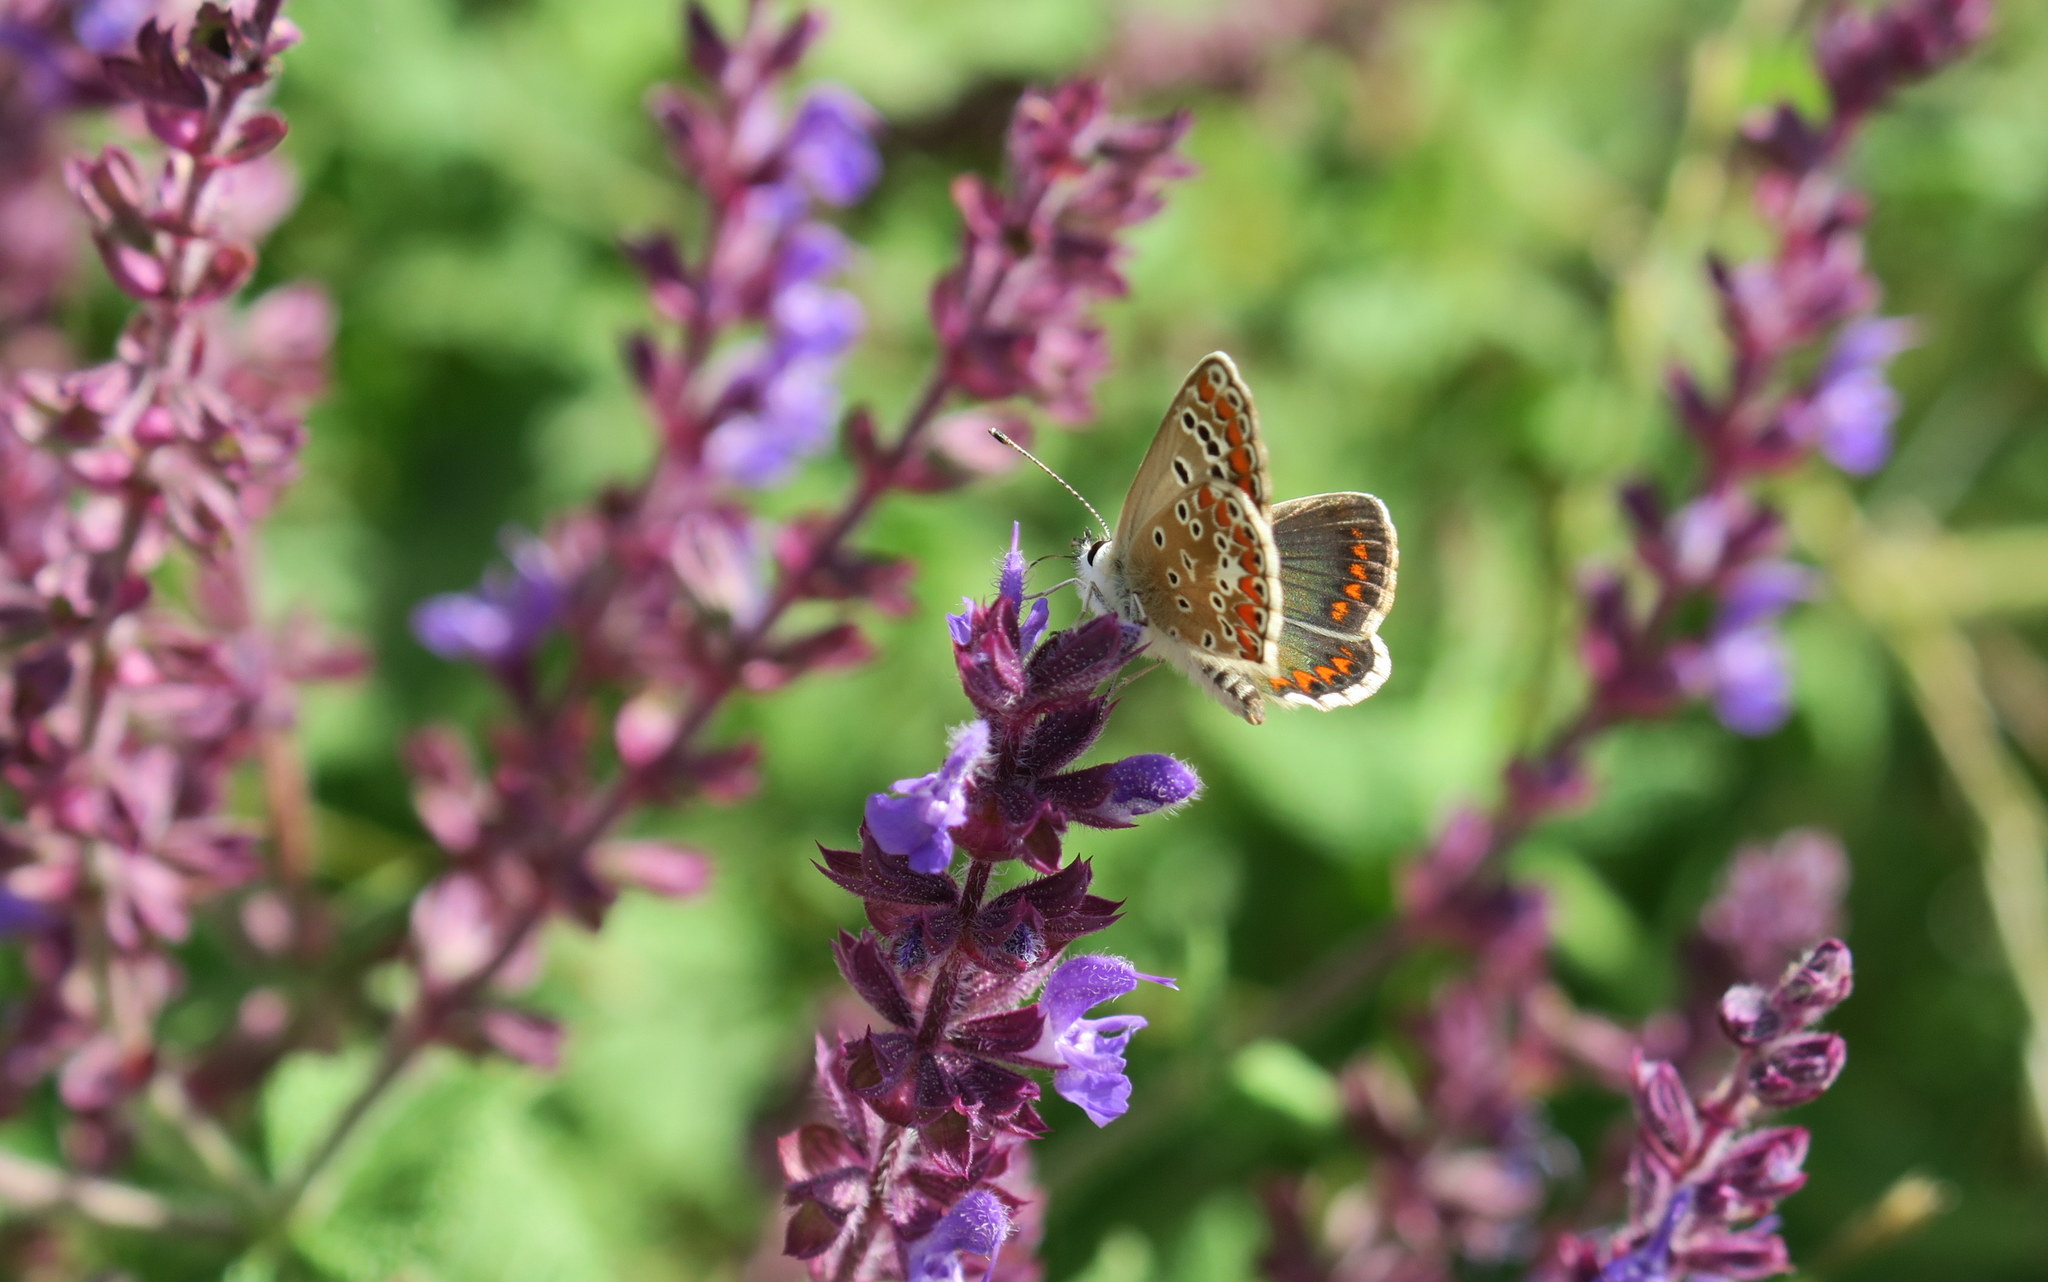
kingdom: Animalia
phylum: Arthropoda
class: Insecta
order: Lepidoptera
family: Lycaenidae
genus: Aricia
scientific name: Aricia agestis
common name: Brown argus
